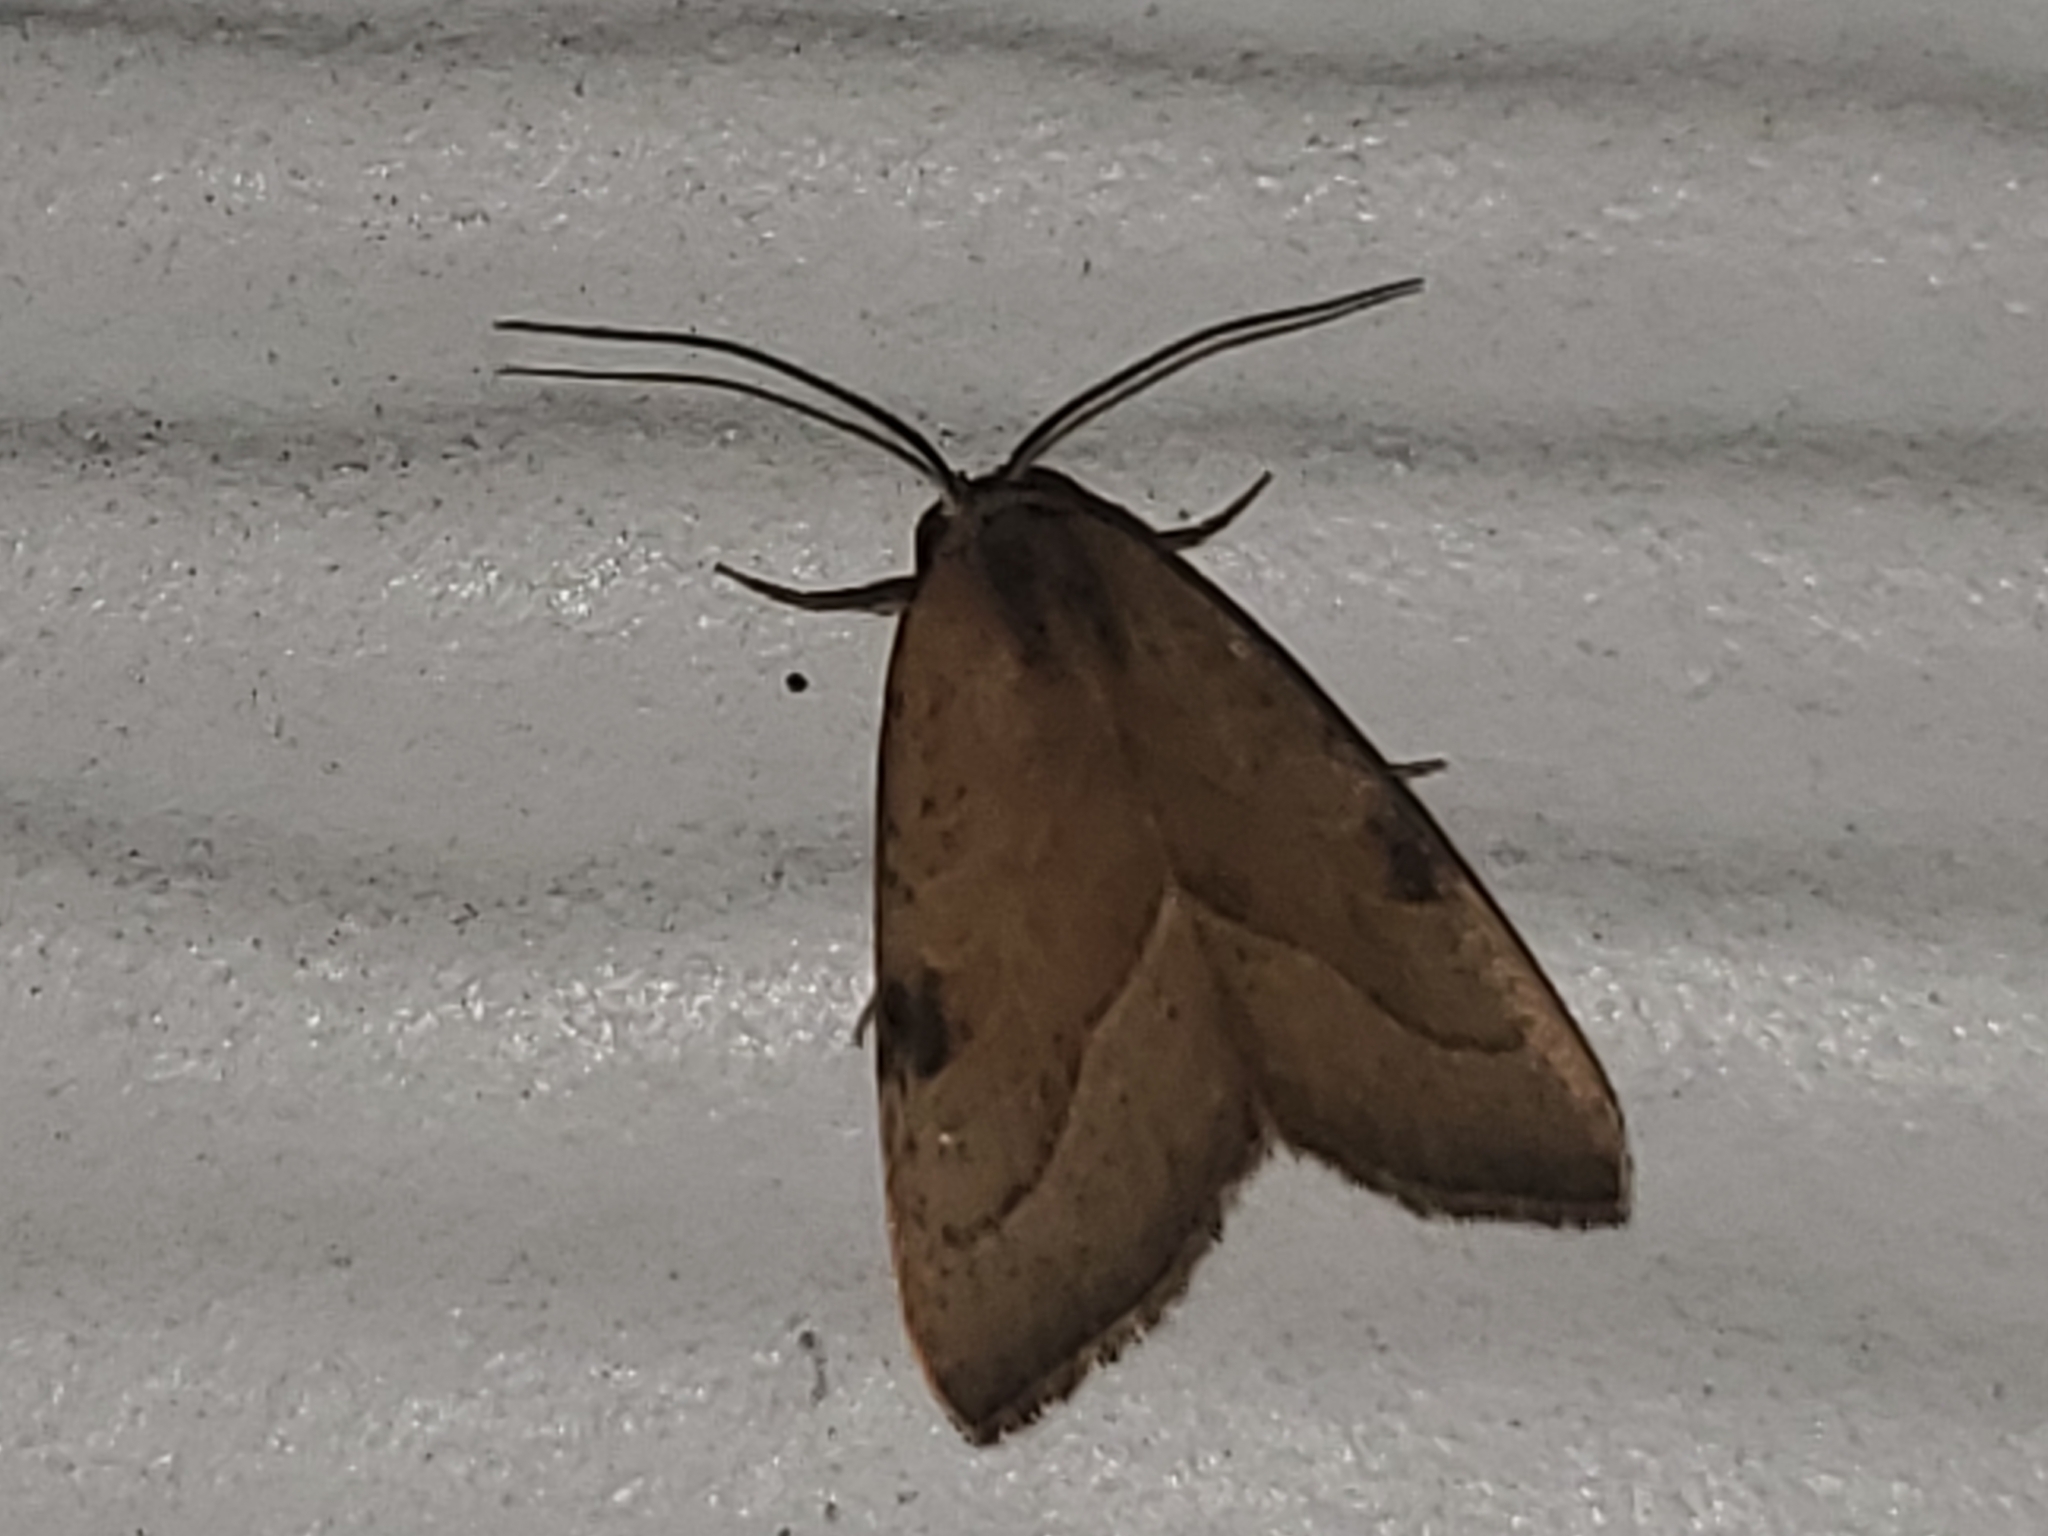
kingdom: Animalia
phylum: Arthropoda
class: Insecta
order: Lepidoptera
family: Noctuidae
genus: Galgula
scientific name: Galgula partita
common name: Wedgeling
